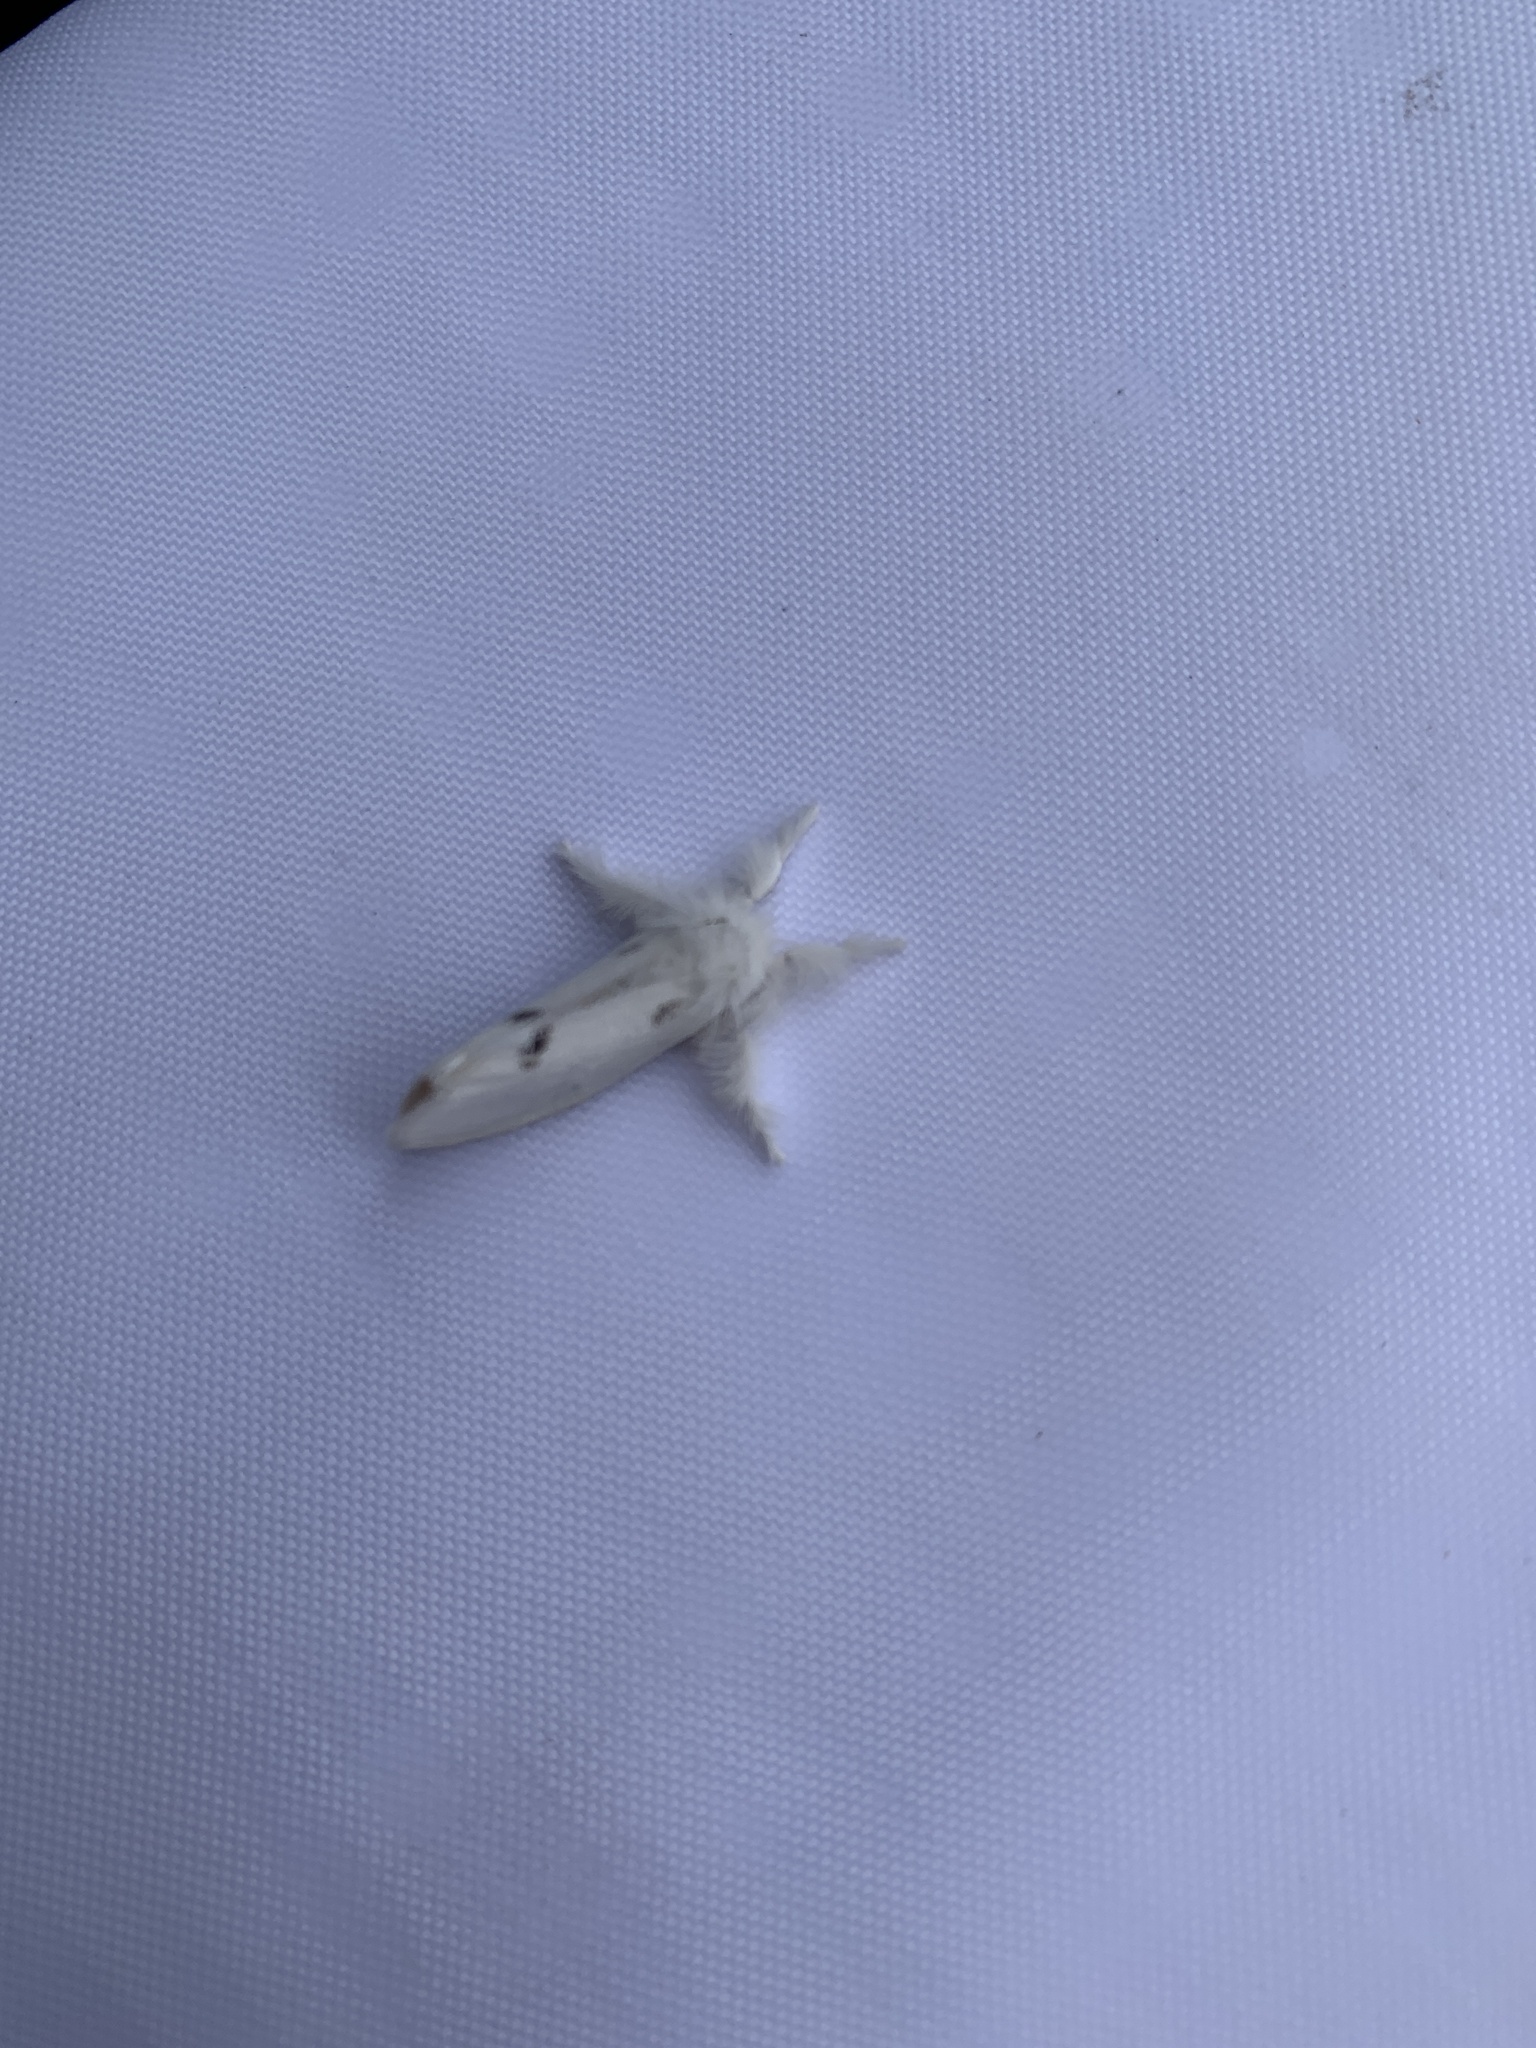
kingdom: Animalia
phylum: Arthropoda
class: Insecta
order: Lepidoptera
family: Erebidae
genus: Sphrageidus
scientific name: Sphrageidus similis
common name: Yellow-tail
